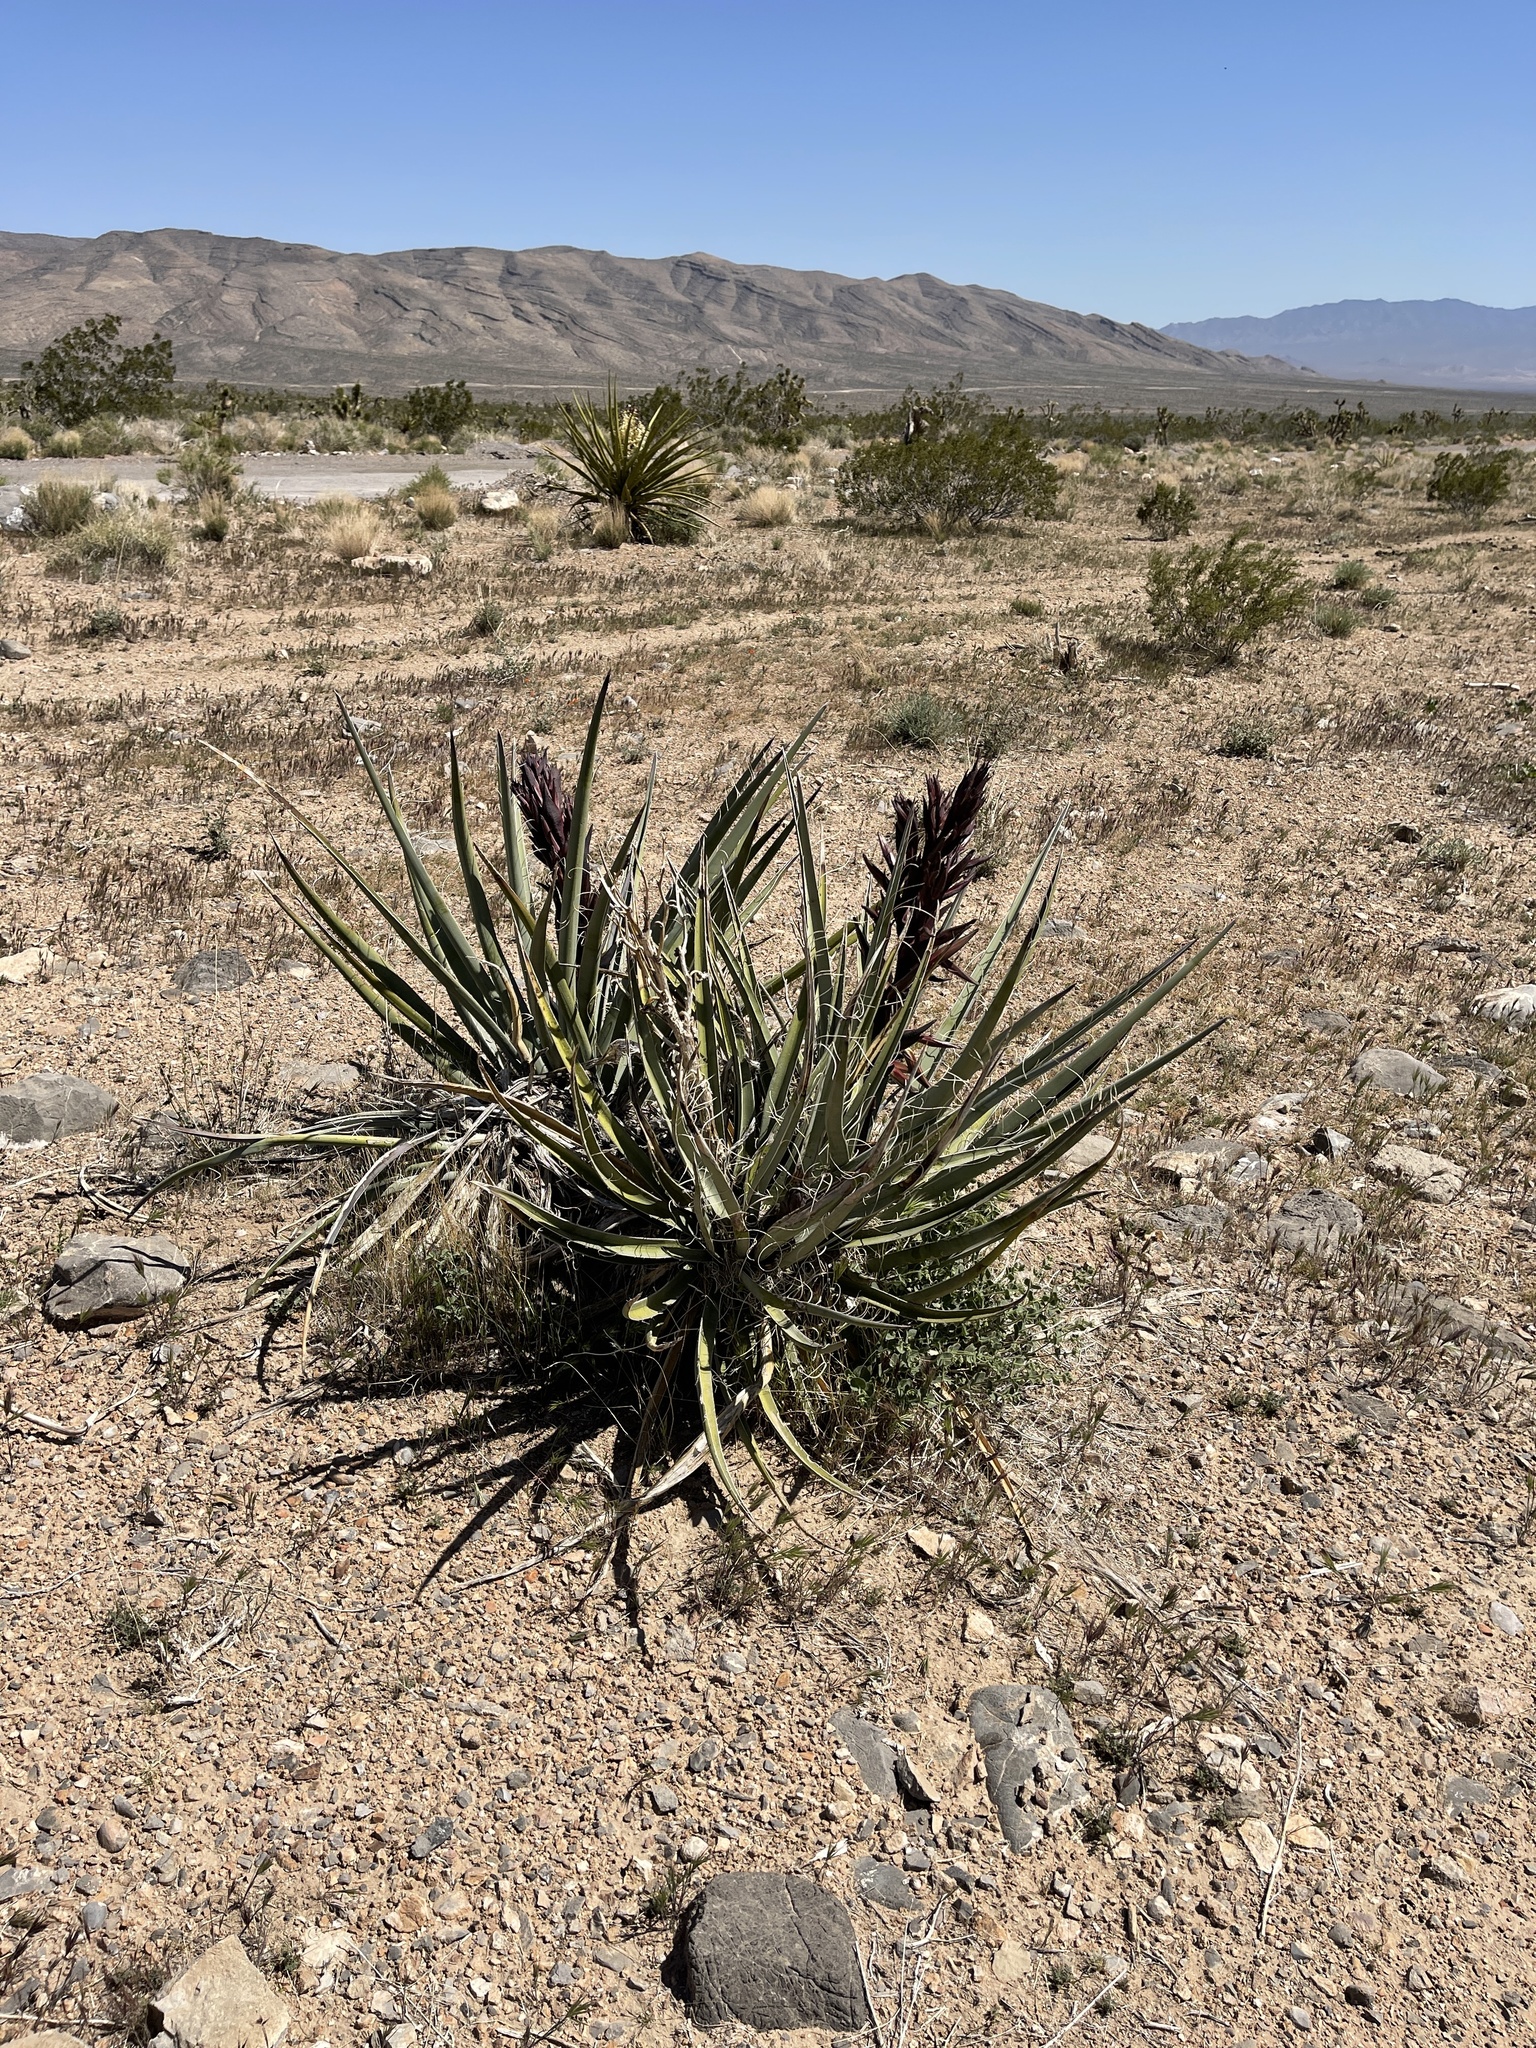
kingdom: Plantae
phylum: Tracheophyta
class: Liliopsida
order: Asparagales
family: Asparagaceae
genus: Yucca
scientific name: Yucca baccata
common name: Banana yucca
